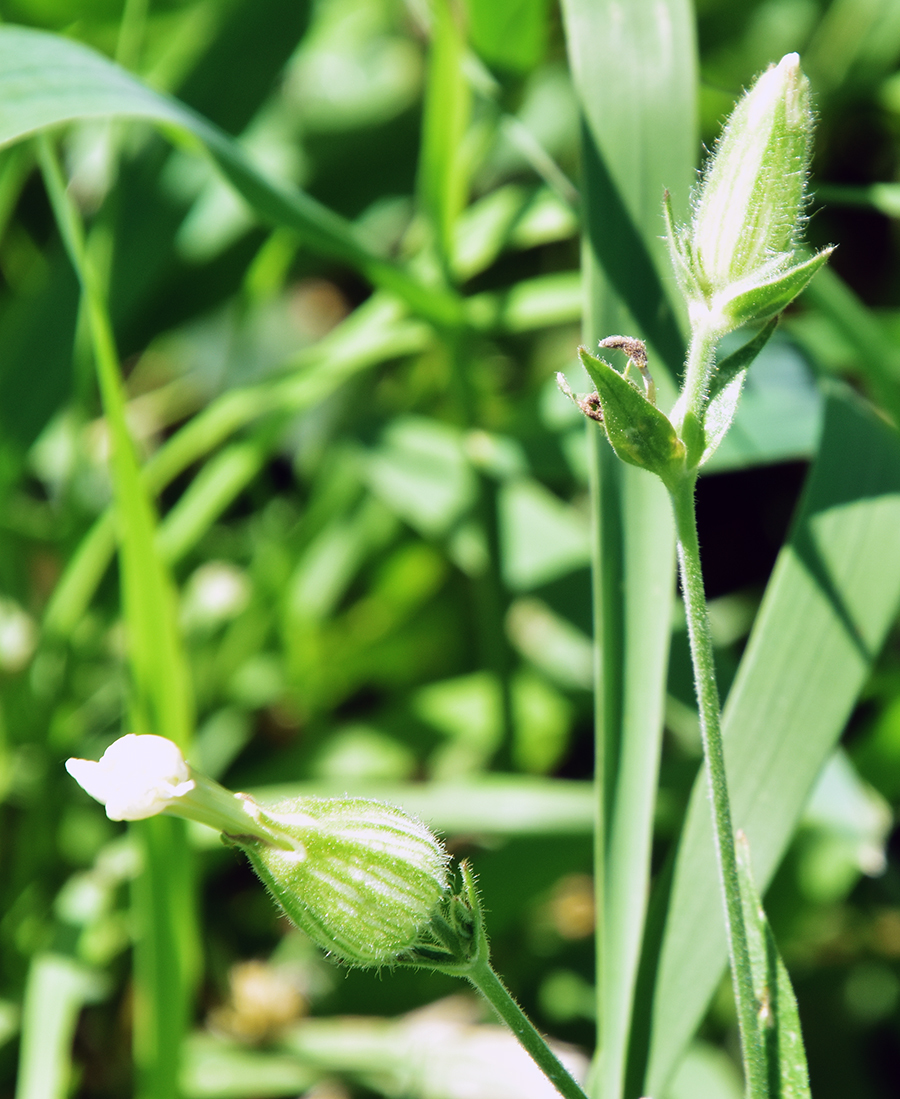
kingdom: Plantae
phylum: Tracheophyta
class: Magnoliopsida
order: Caryophyllales
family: Caryophyllaceae
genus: Silene
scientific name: Silene latifolia
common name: White campion
